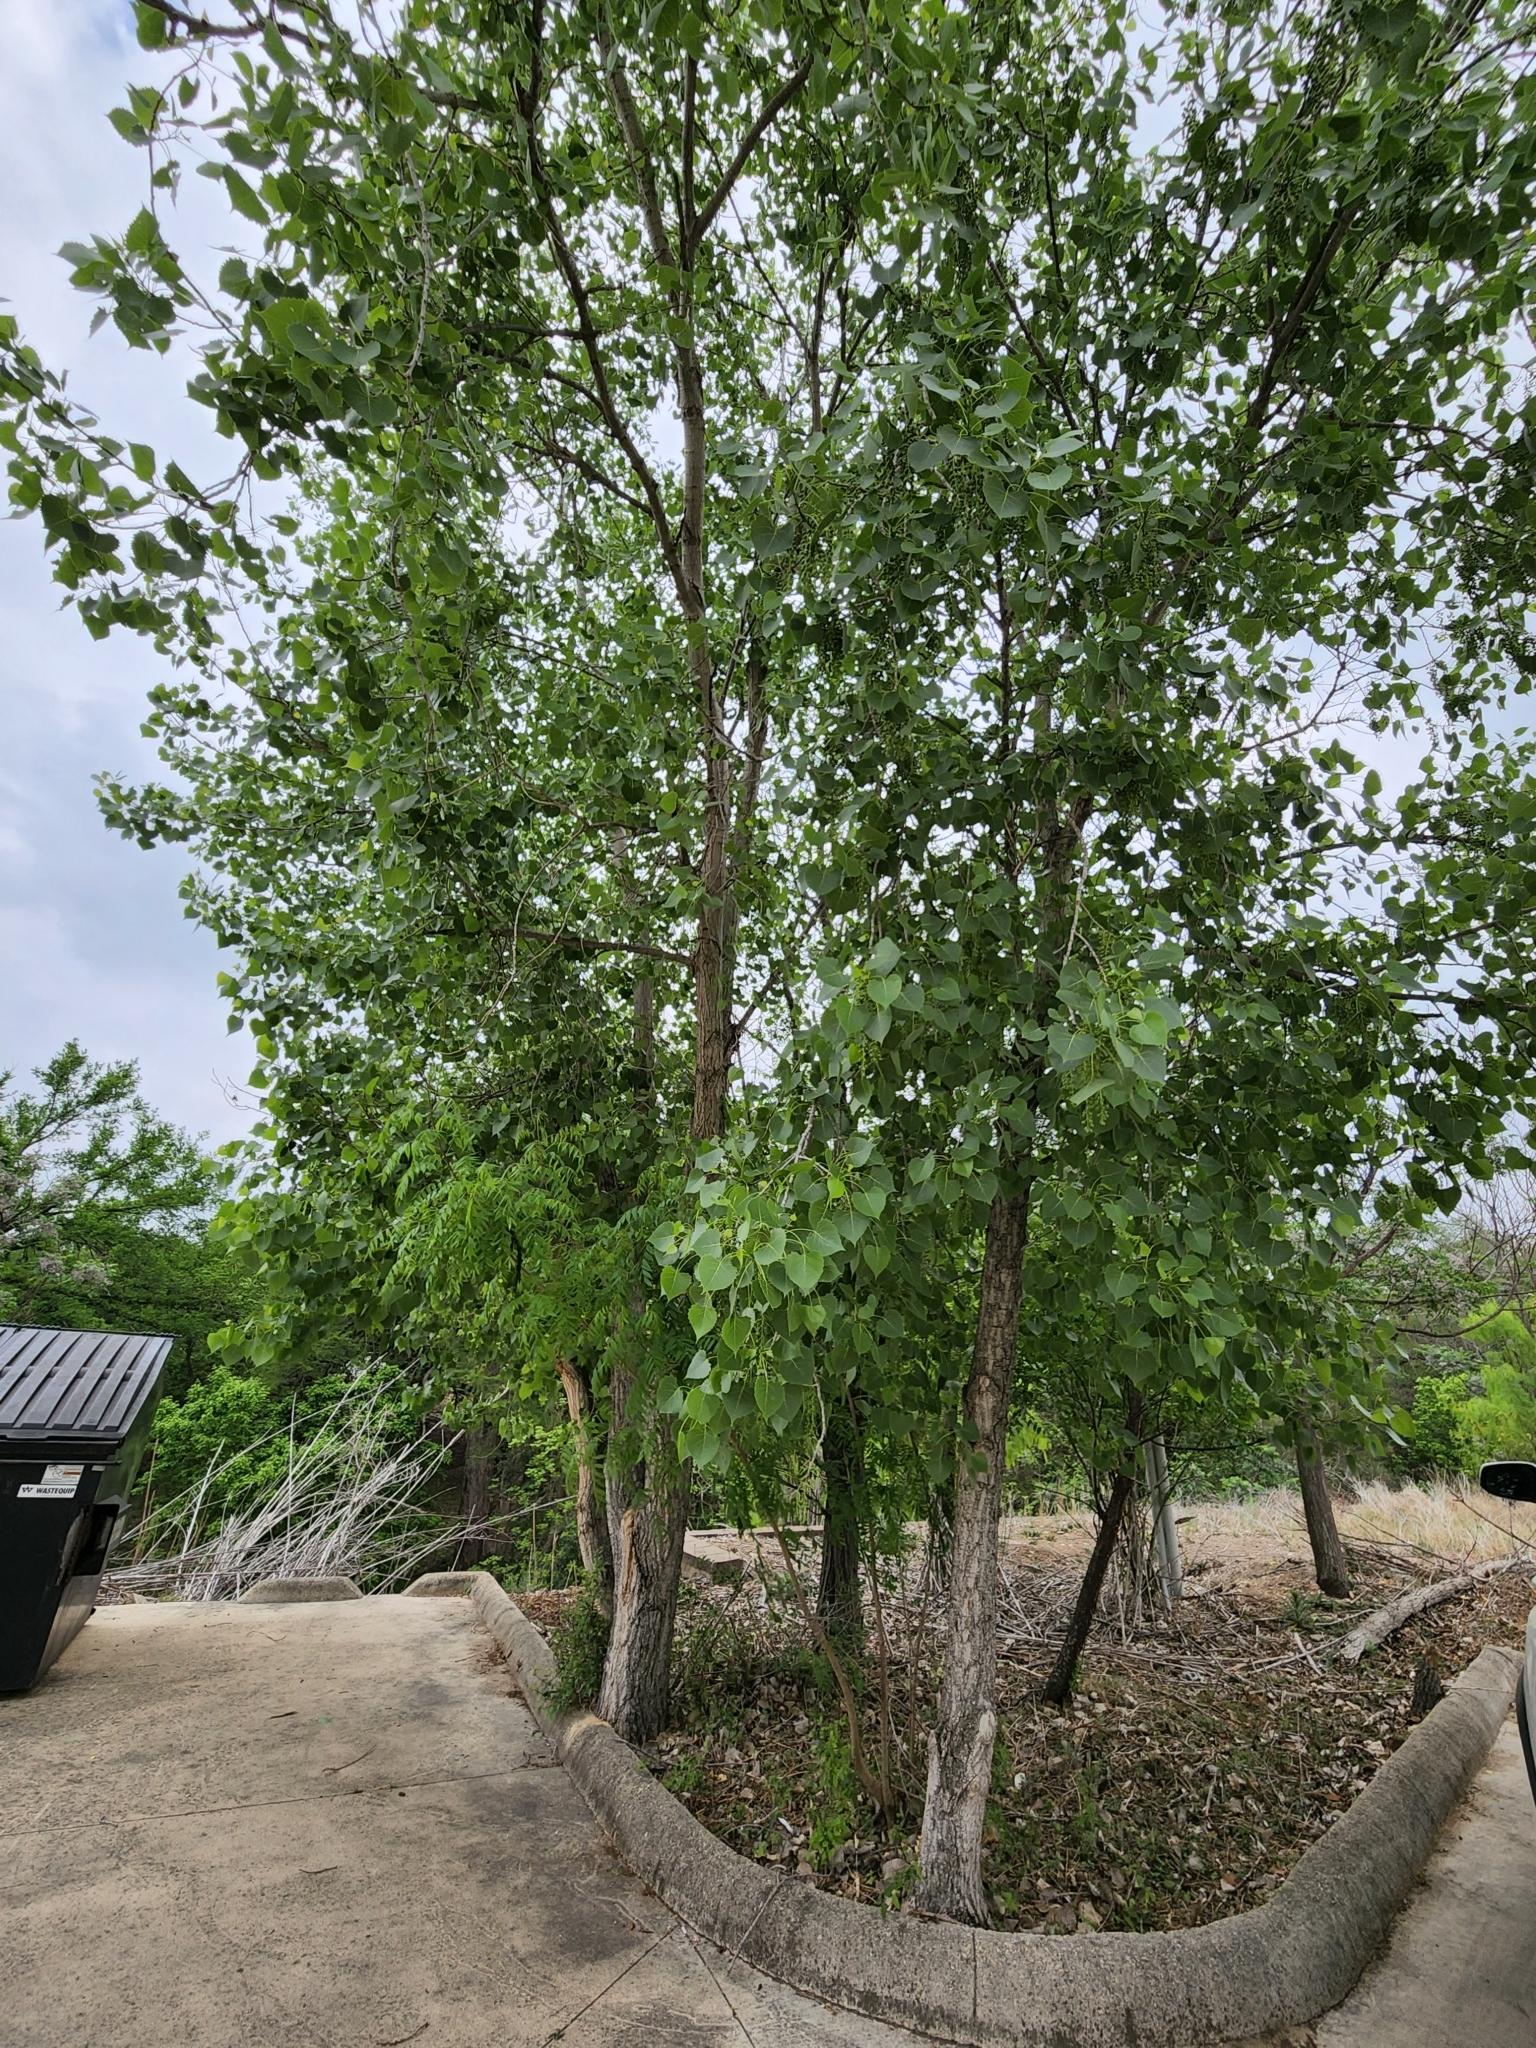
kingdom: Plantae
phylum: Tracheophyta
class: Magnoliopsida
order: Malpighiales
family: Salicaceae
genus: Populus
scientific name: Populus deltoides
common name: Eastern cottonwood
